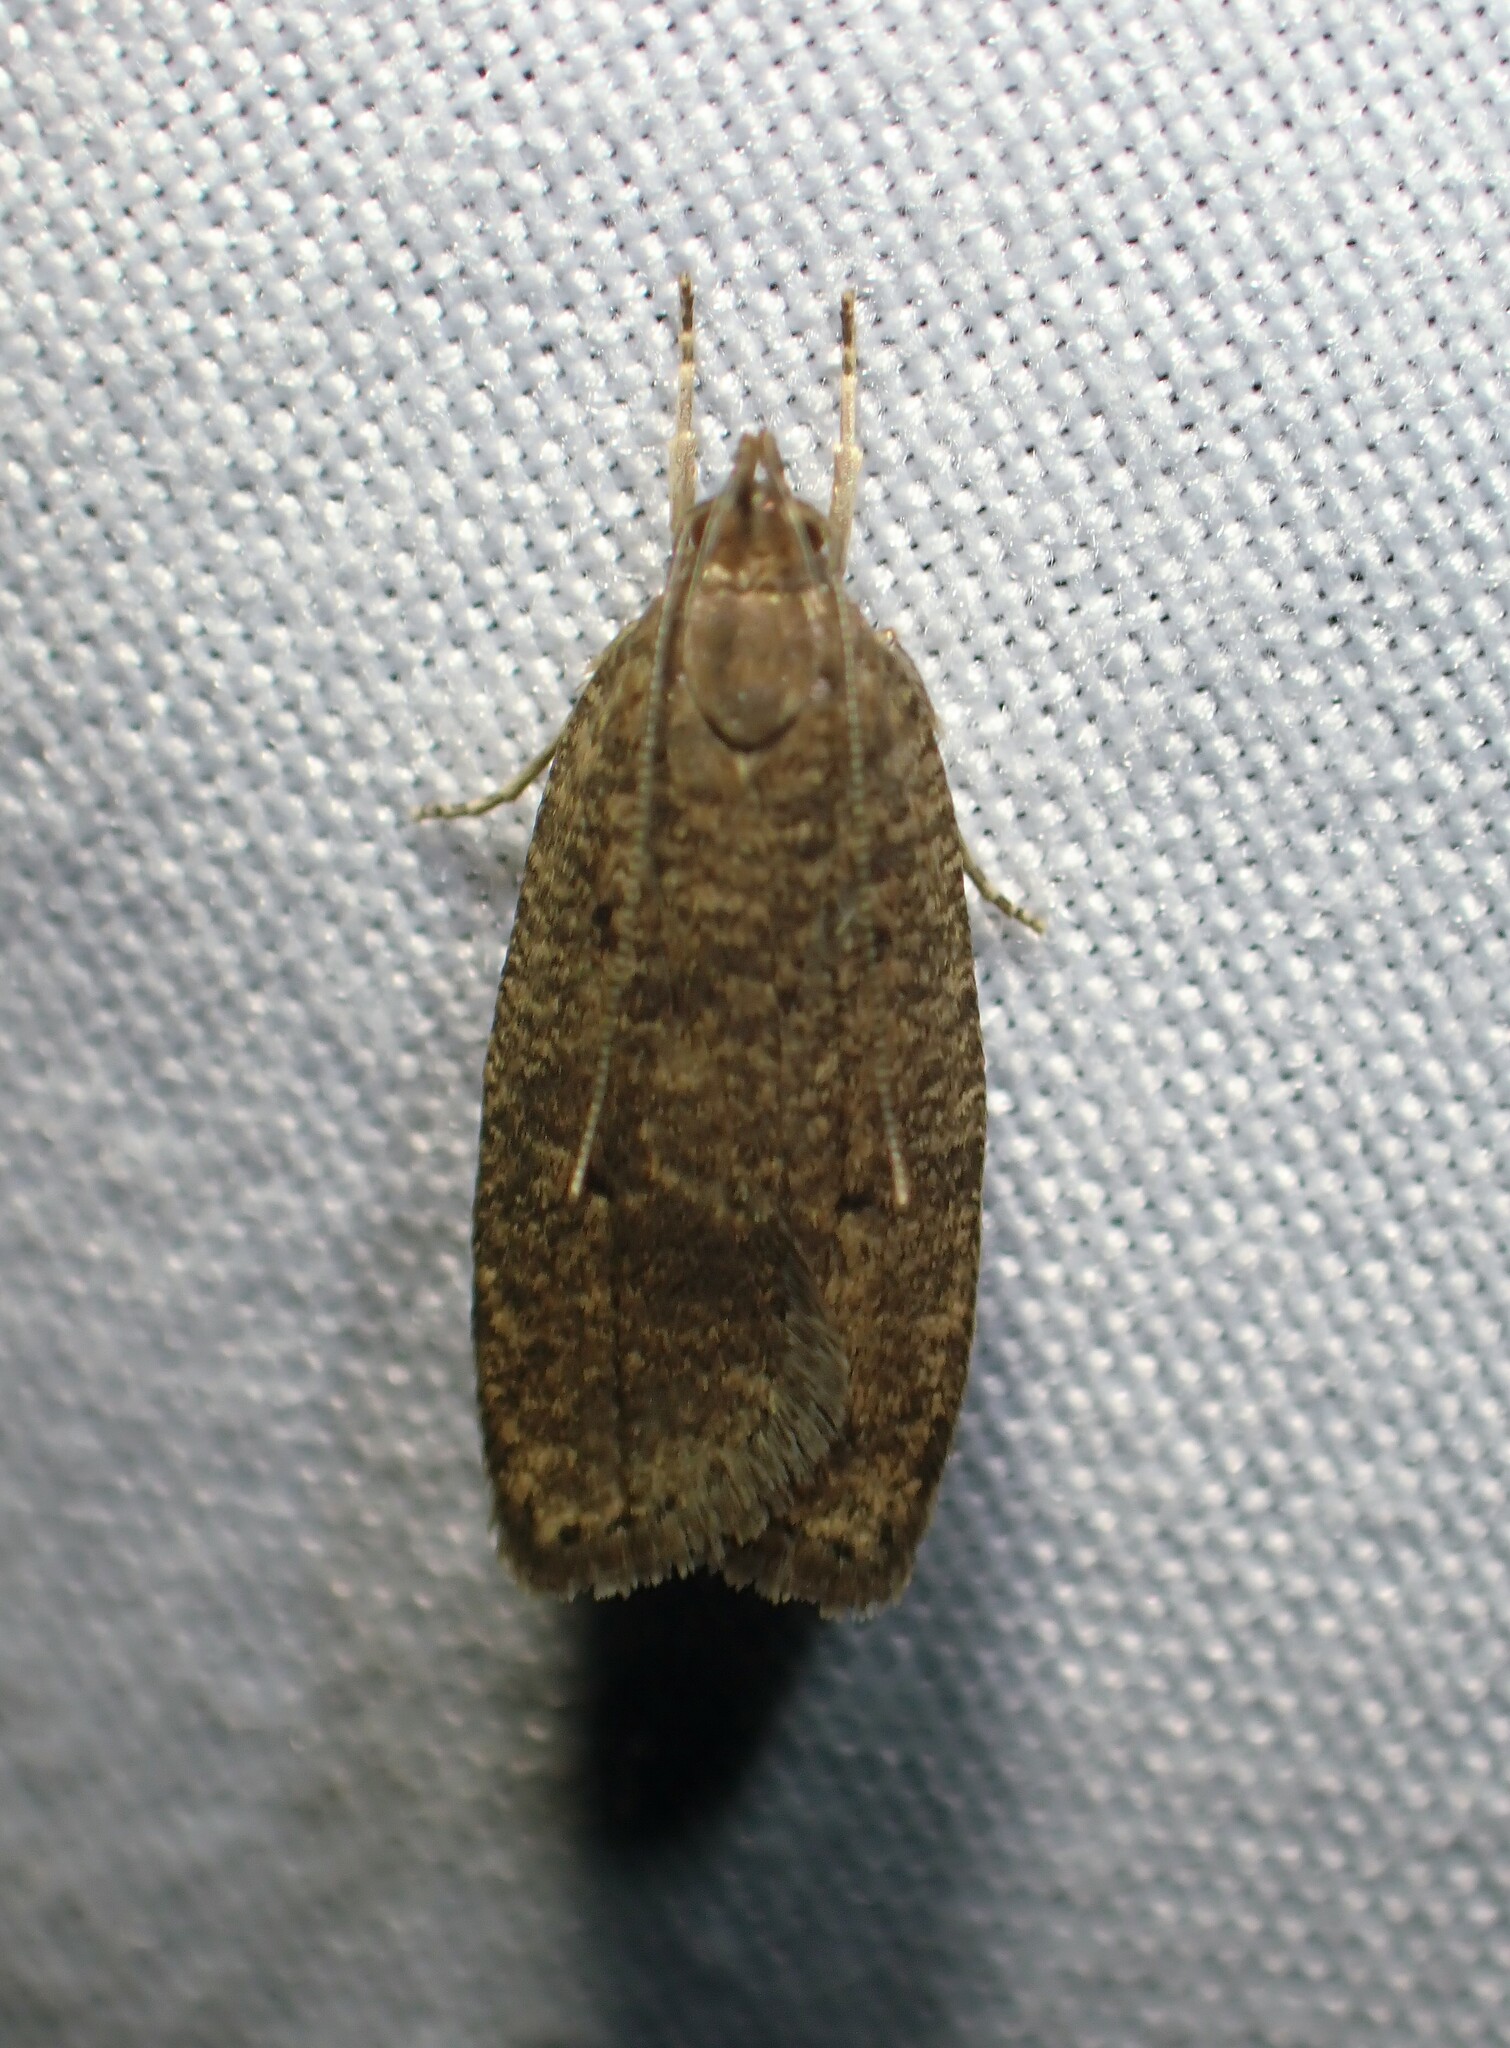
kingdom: Animalia
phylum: Arthropoda
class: Insecta
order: Lepidoptera
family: Depressariidae
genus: Psilocorsis
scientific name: Psilocorsis reflexella
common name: Dotted leaftier moth
